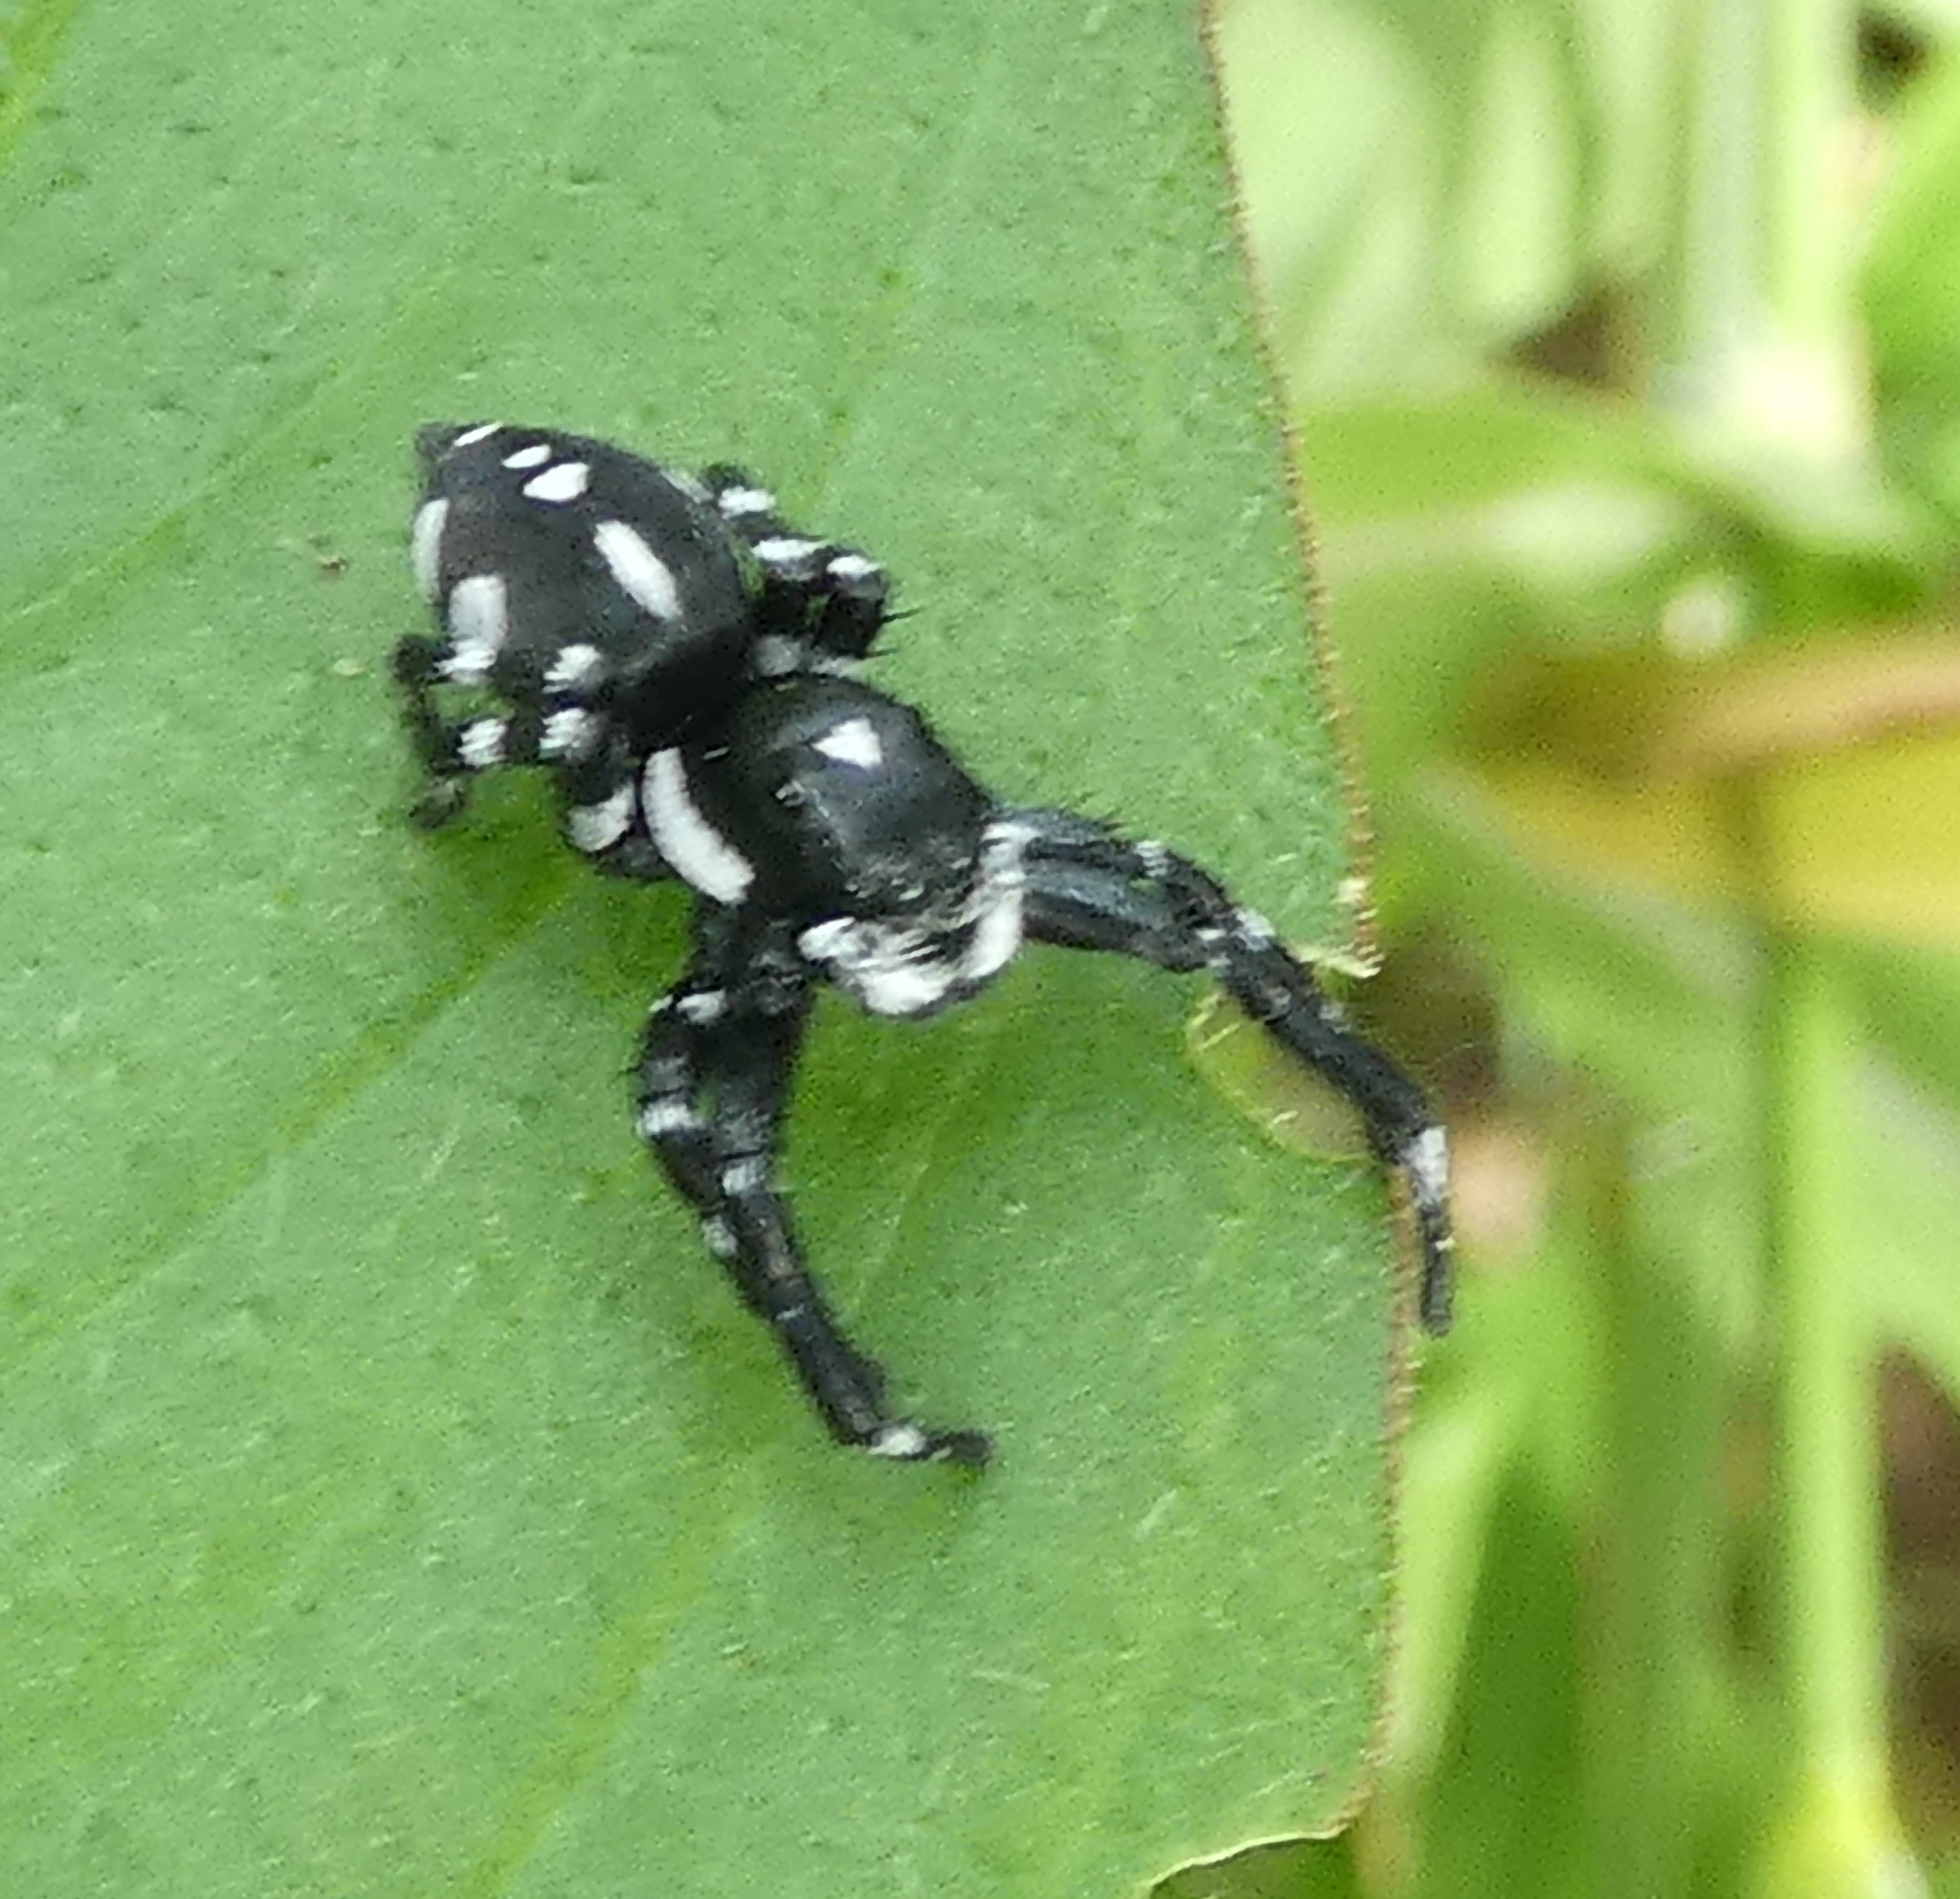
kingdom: Animalia
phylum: Arthropoda
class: Arachnida
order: Araneae
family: Salticidae
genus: Phiale
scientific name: Phiale guttata
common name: Jumping spiders
